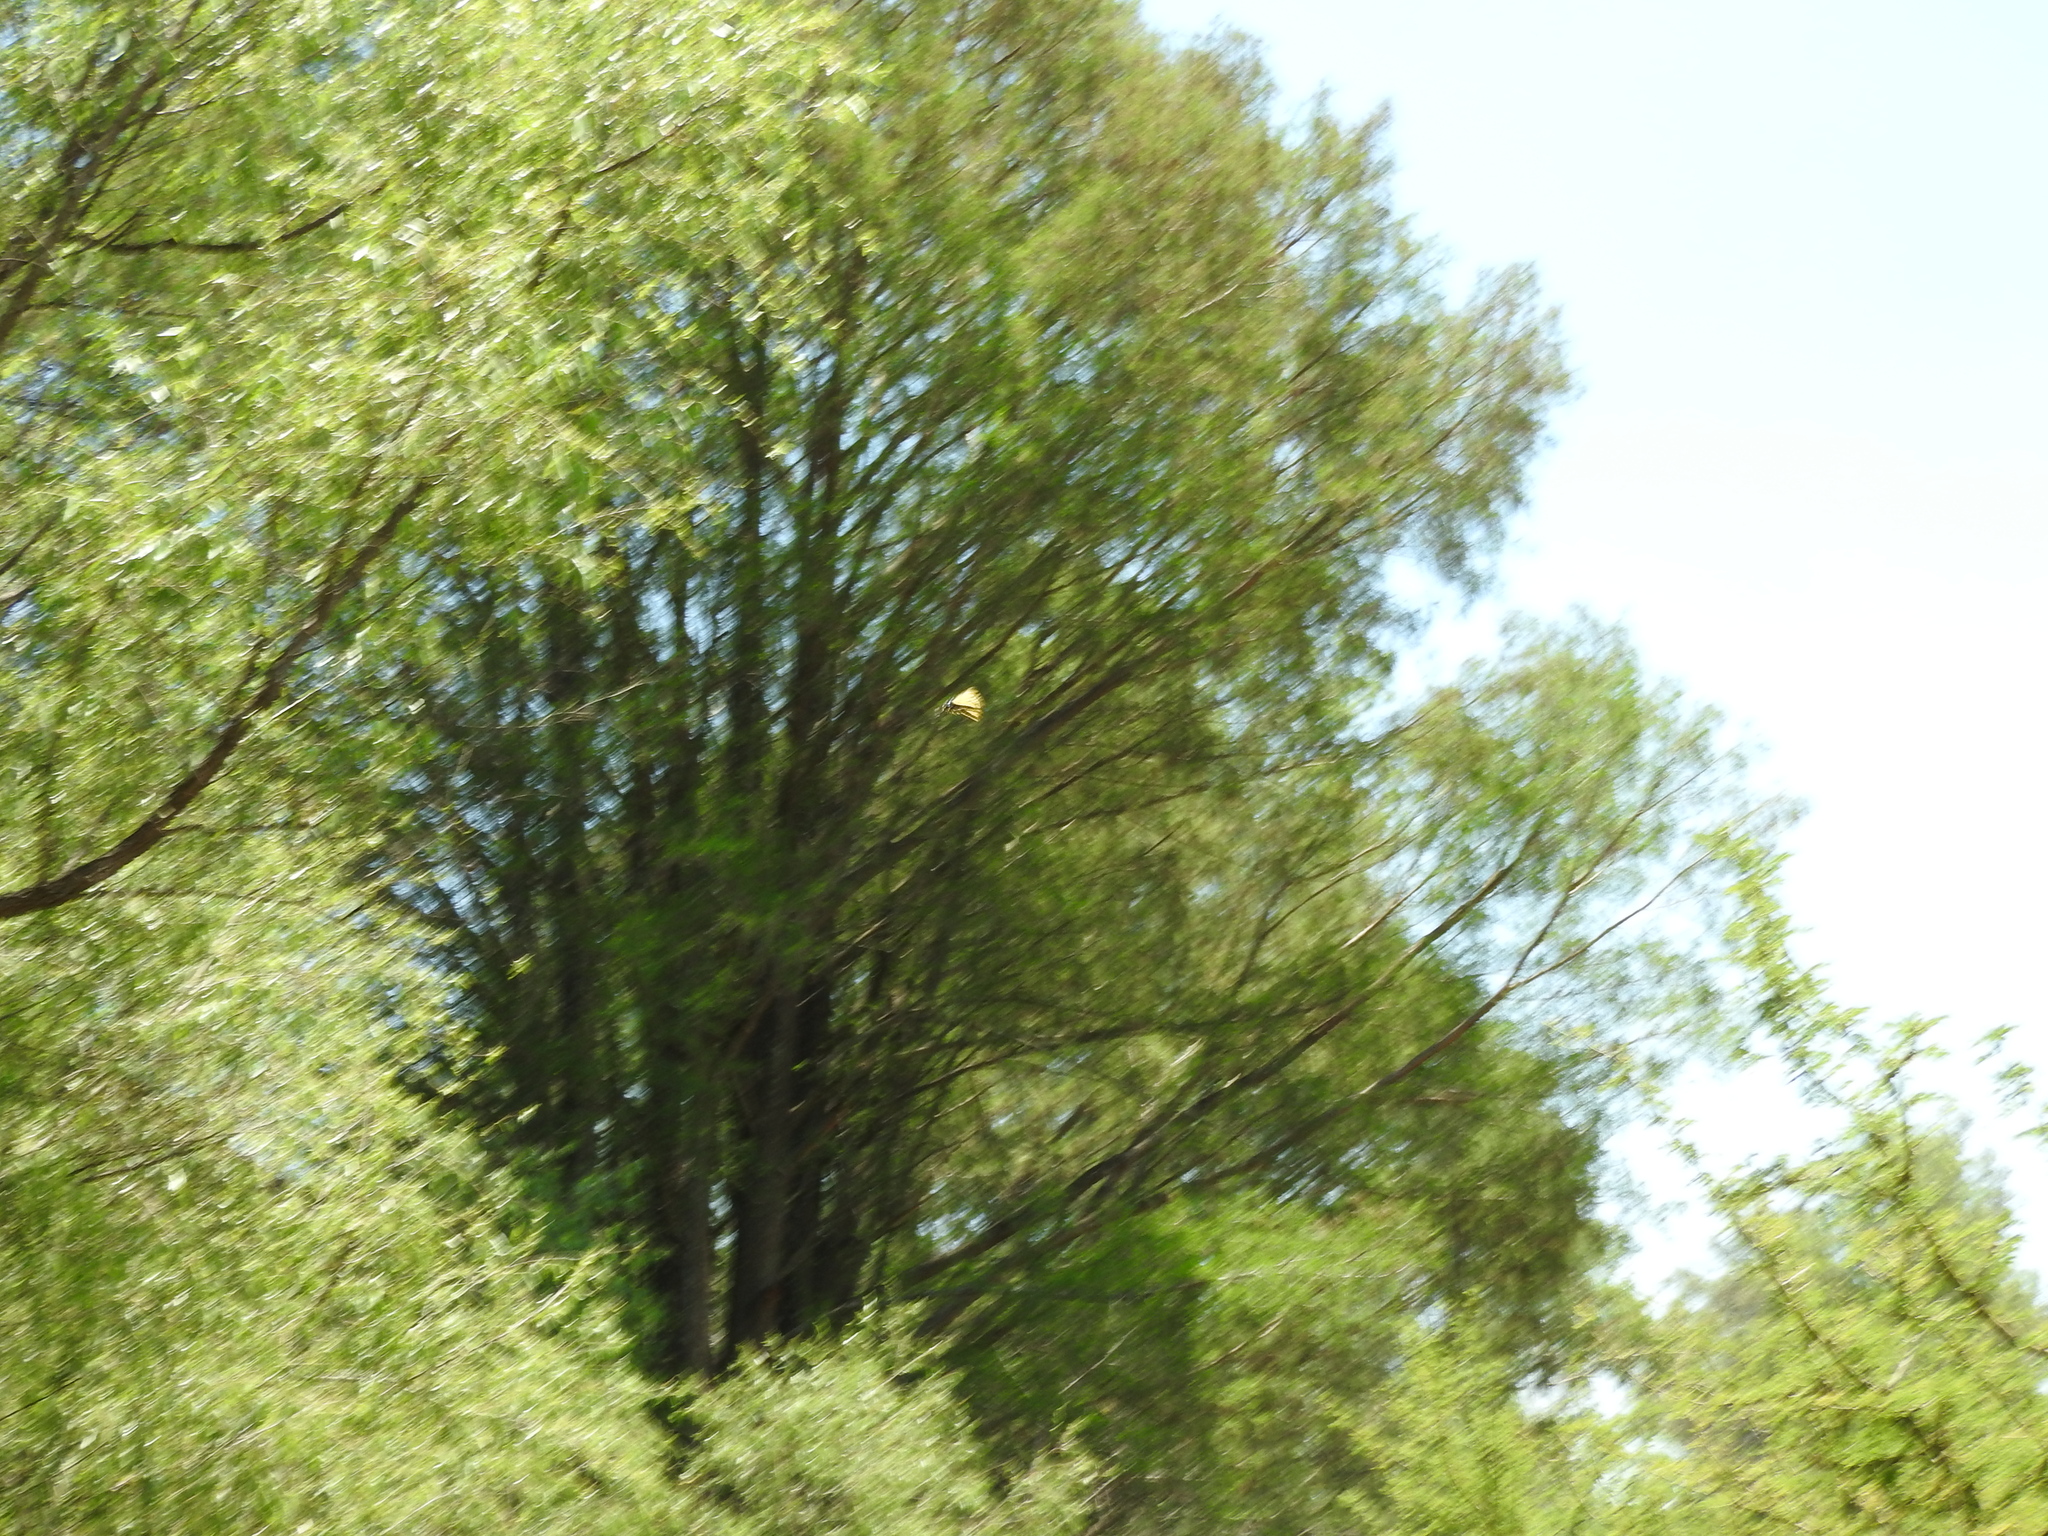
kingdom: Plantae
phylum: Tracheophyta
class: Pinopsida
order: Pinales
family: Cupressaceae
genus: Taxodium
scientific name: Taxodium mucronatum
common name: Montezume bald cypress
